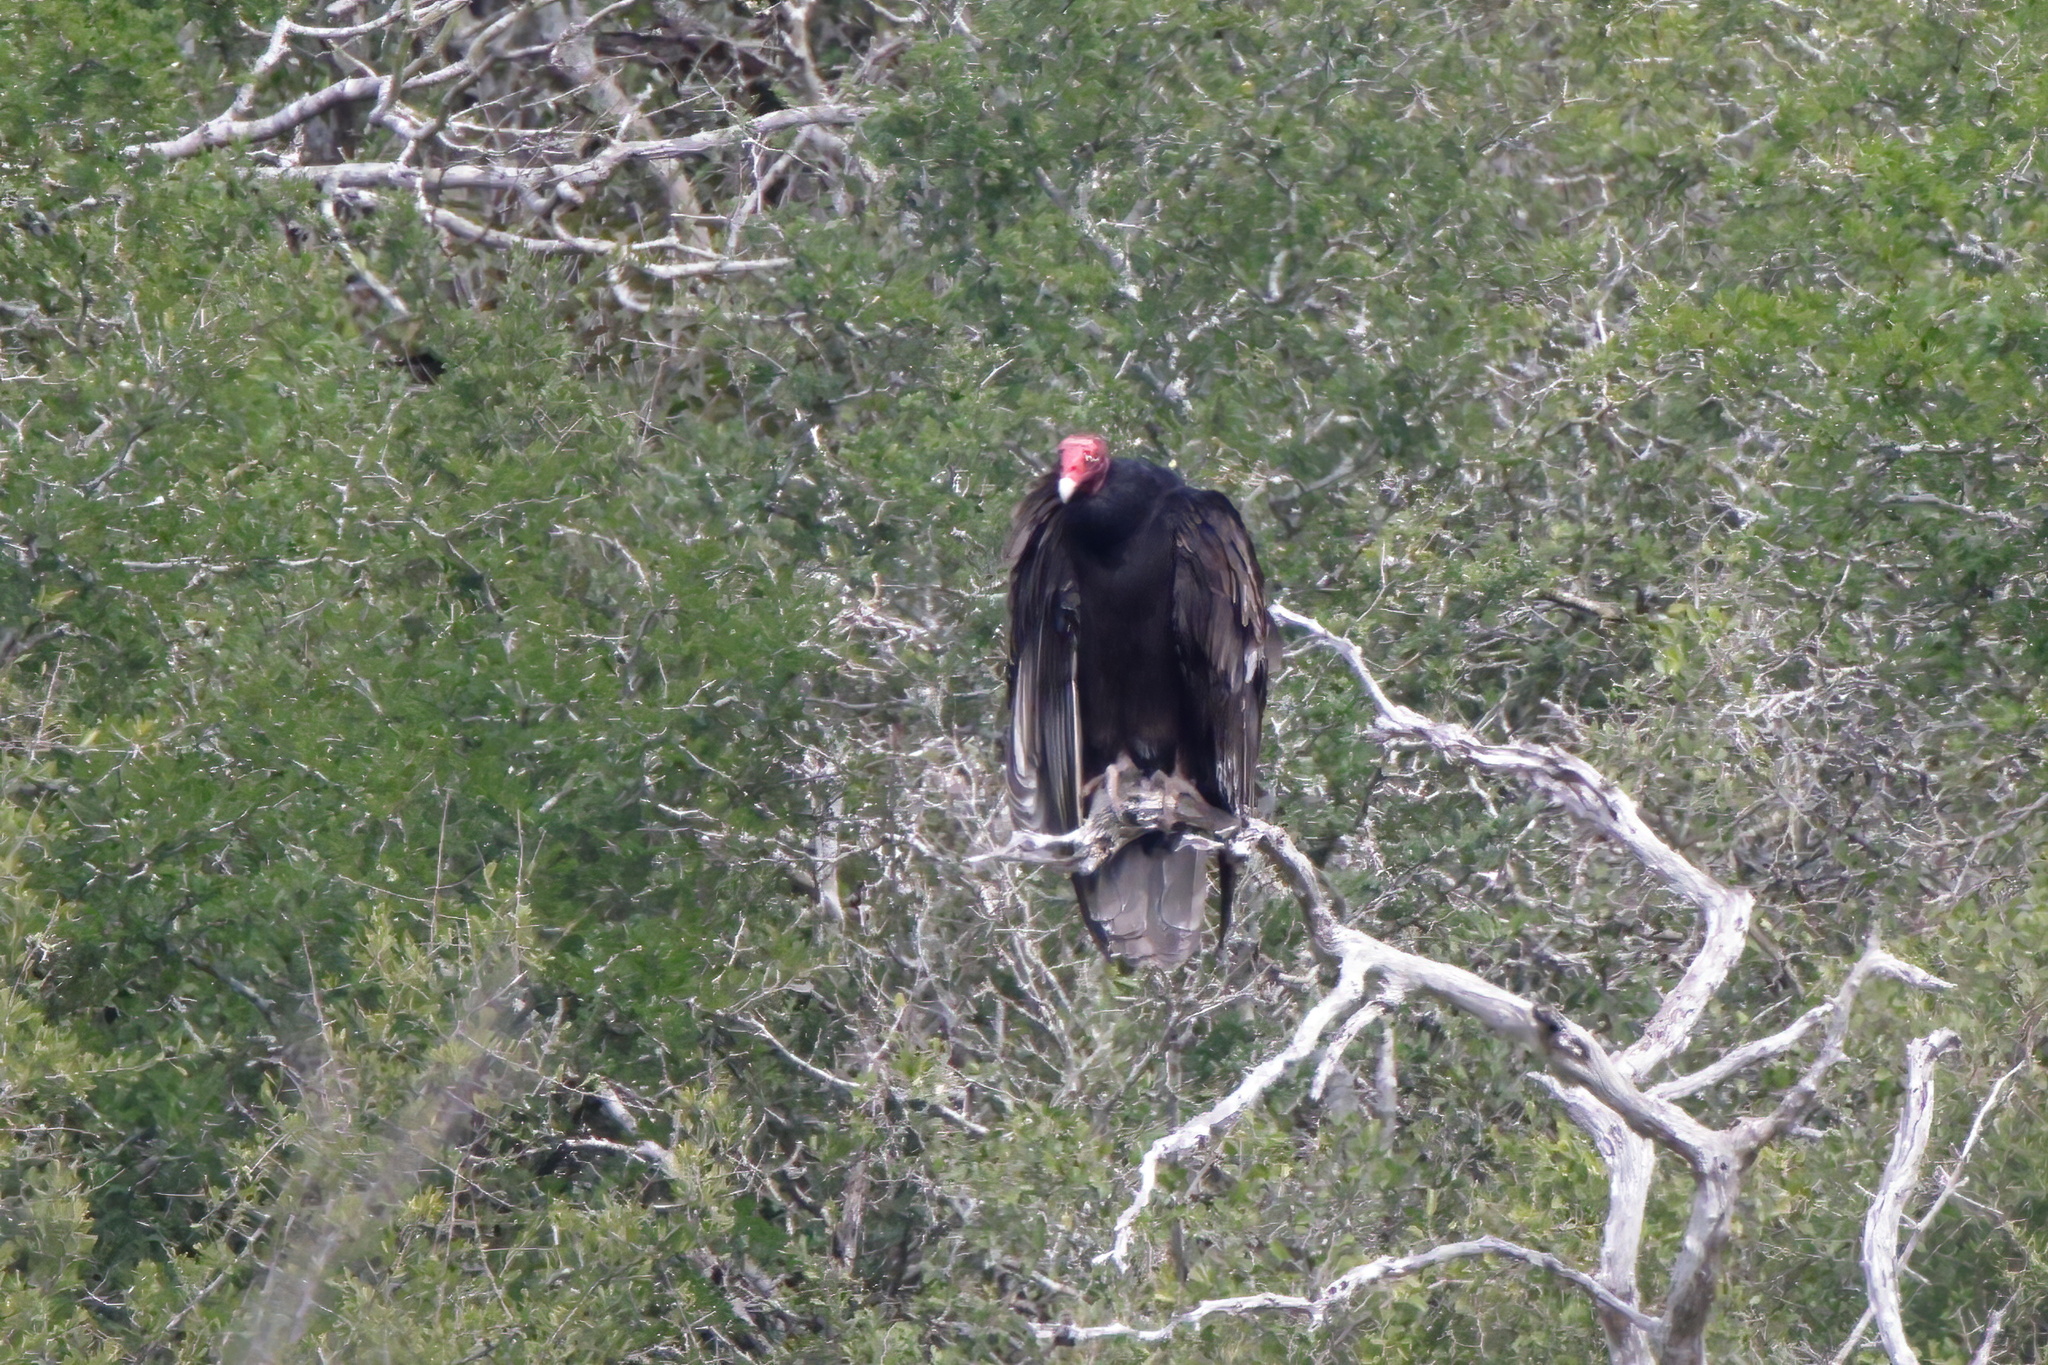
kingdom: Animalia
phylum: Chordata
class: Aves
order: Accipitriformes
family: Cathartidae
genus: Cathartes
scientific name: Cathartes aura
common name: Turkey vulture
